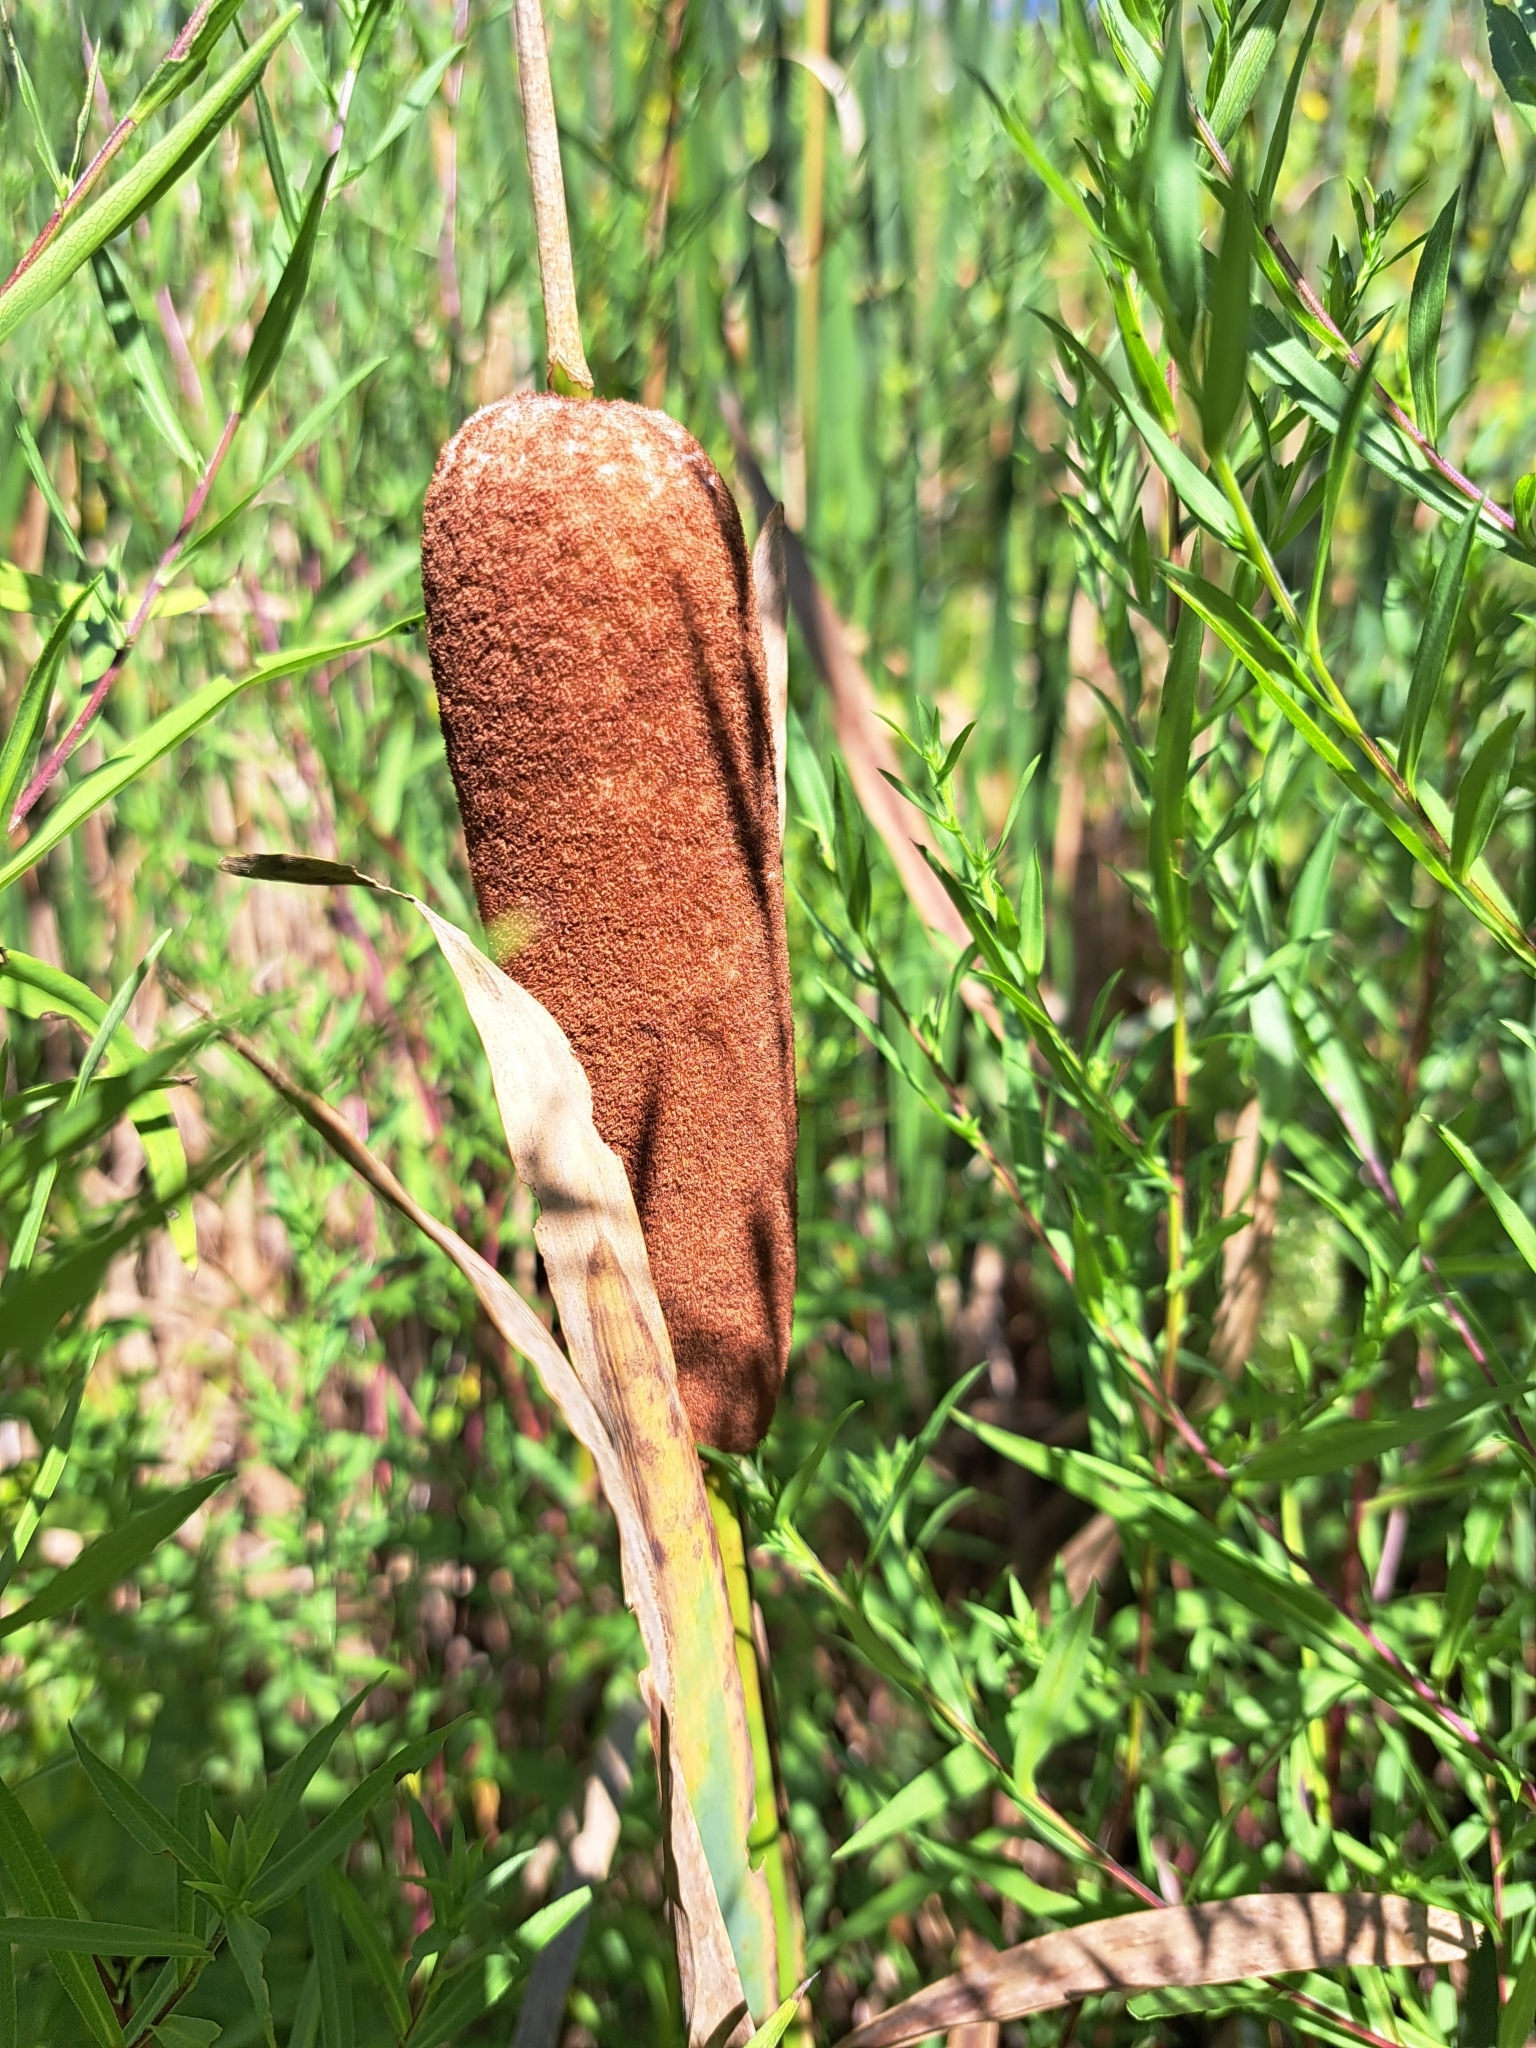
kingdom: Plantae
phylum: Tracheophyta
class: Liliopsida
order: Poales
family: Typhaceae
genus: Typha
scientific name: Typha latifolia
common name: Broadleaf cattail
